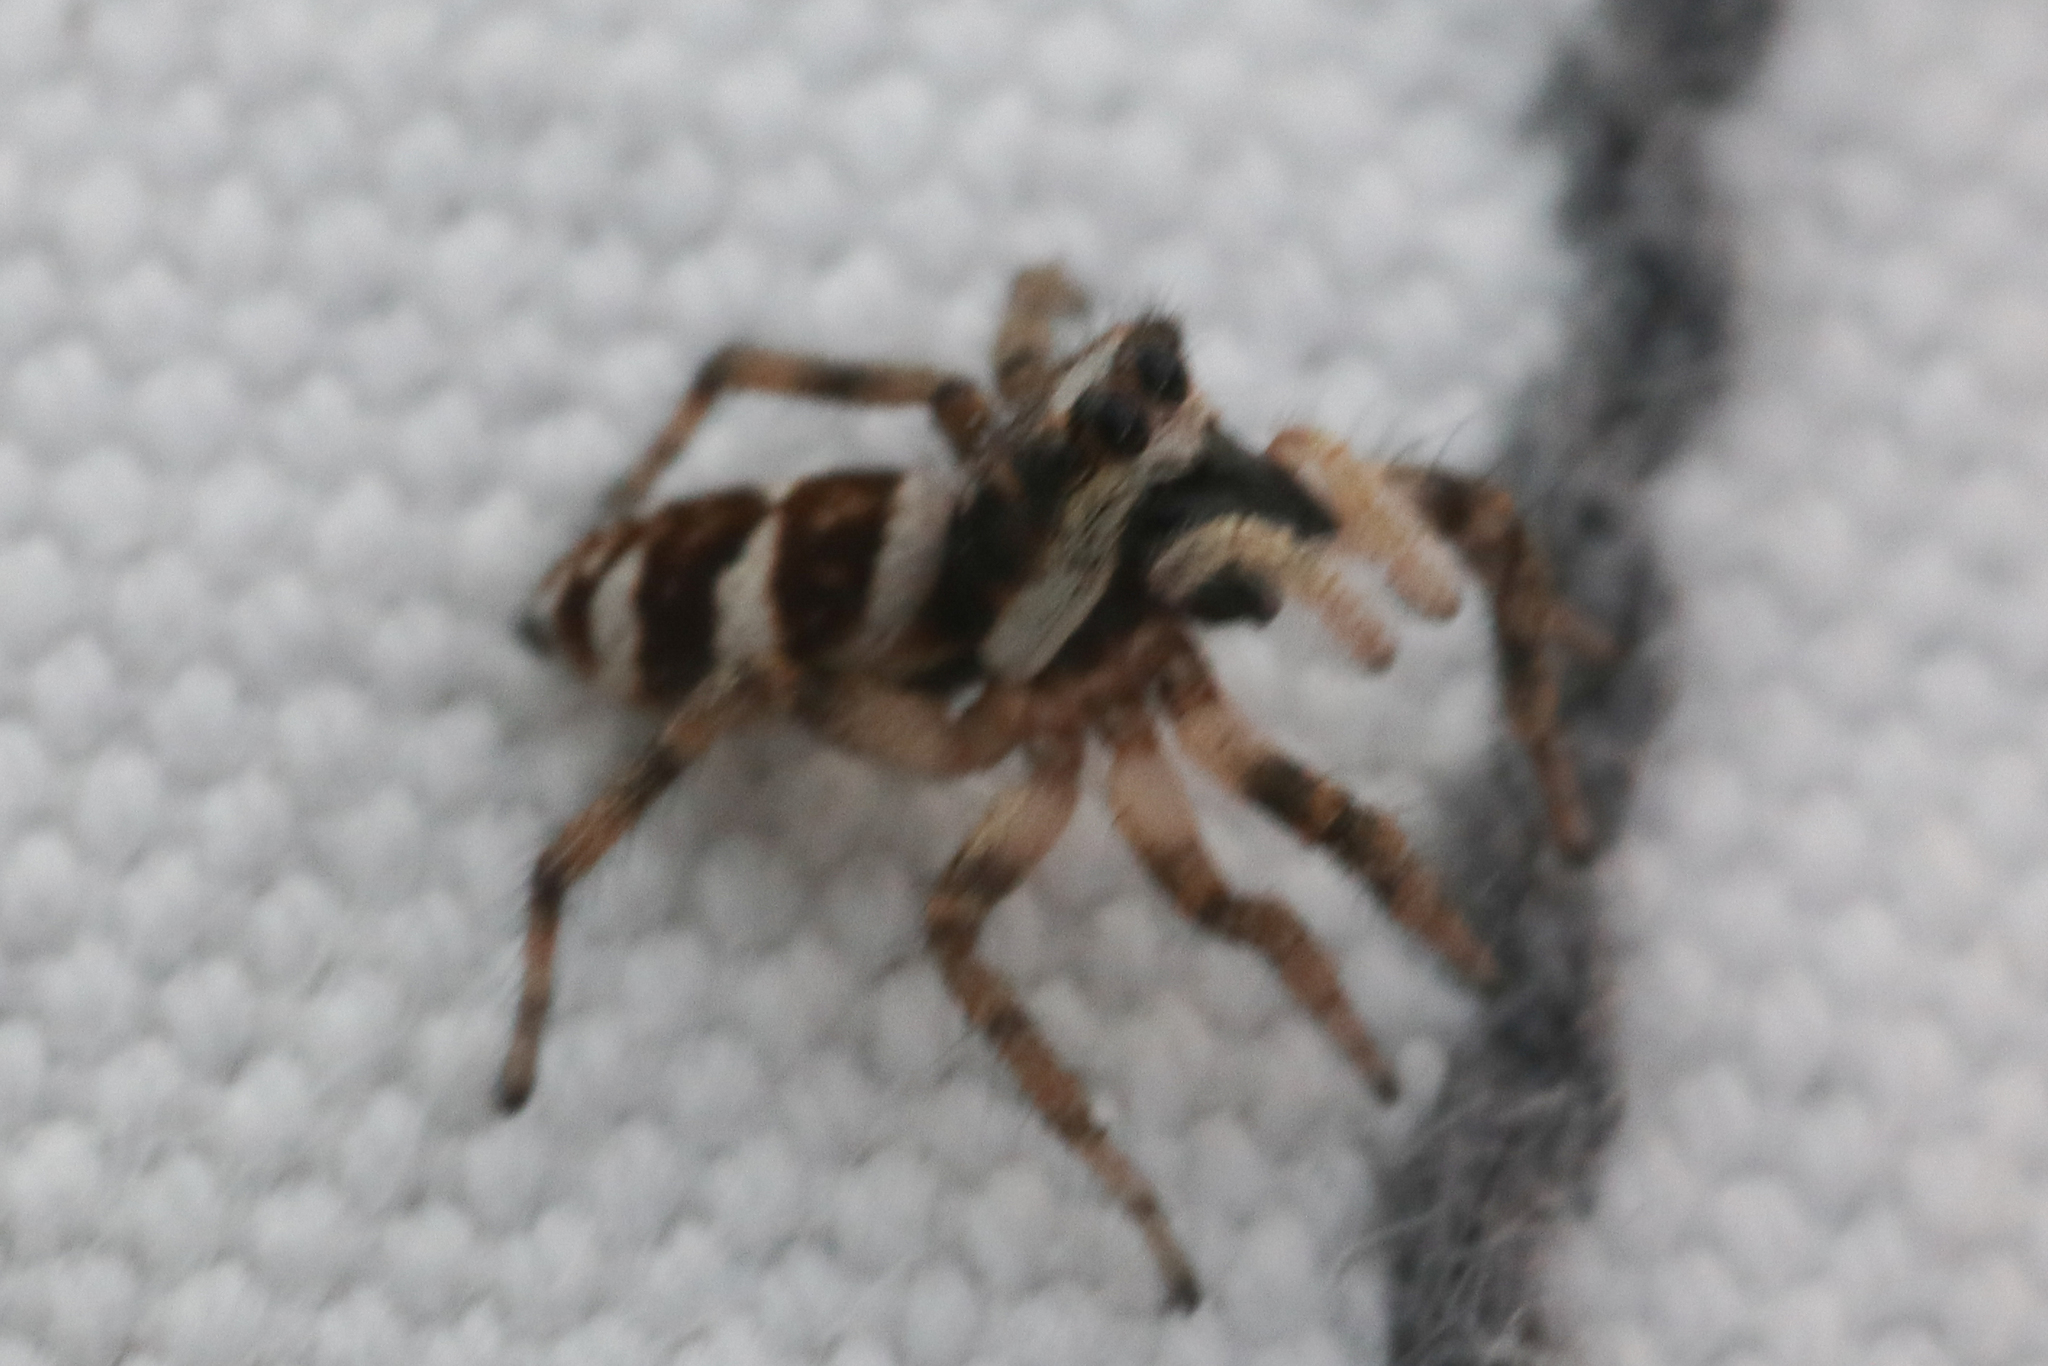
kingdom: Animalia
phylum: Arthropoda
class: Arachnida
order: Araneae
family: Salticidae
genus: Salticus
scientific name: Salticus scenicus
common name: Zebra jumper
